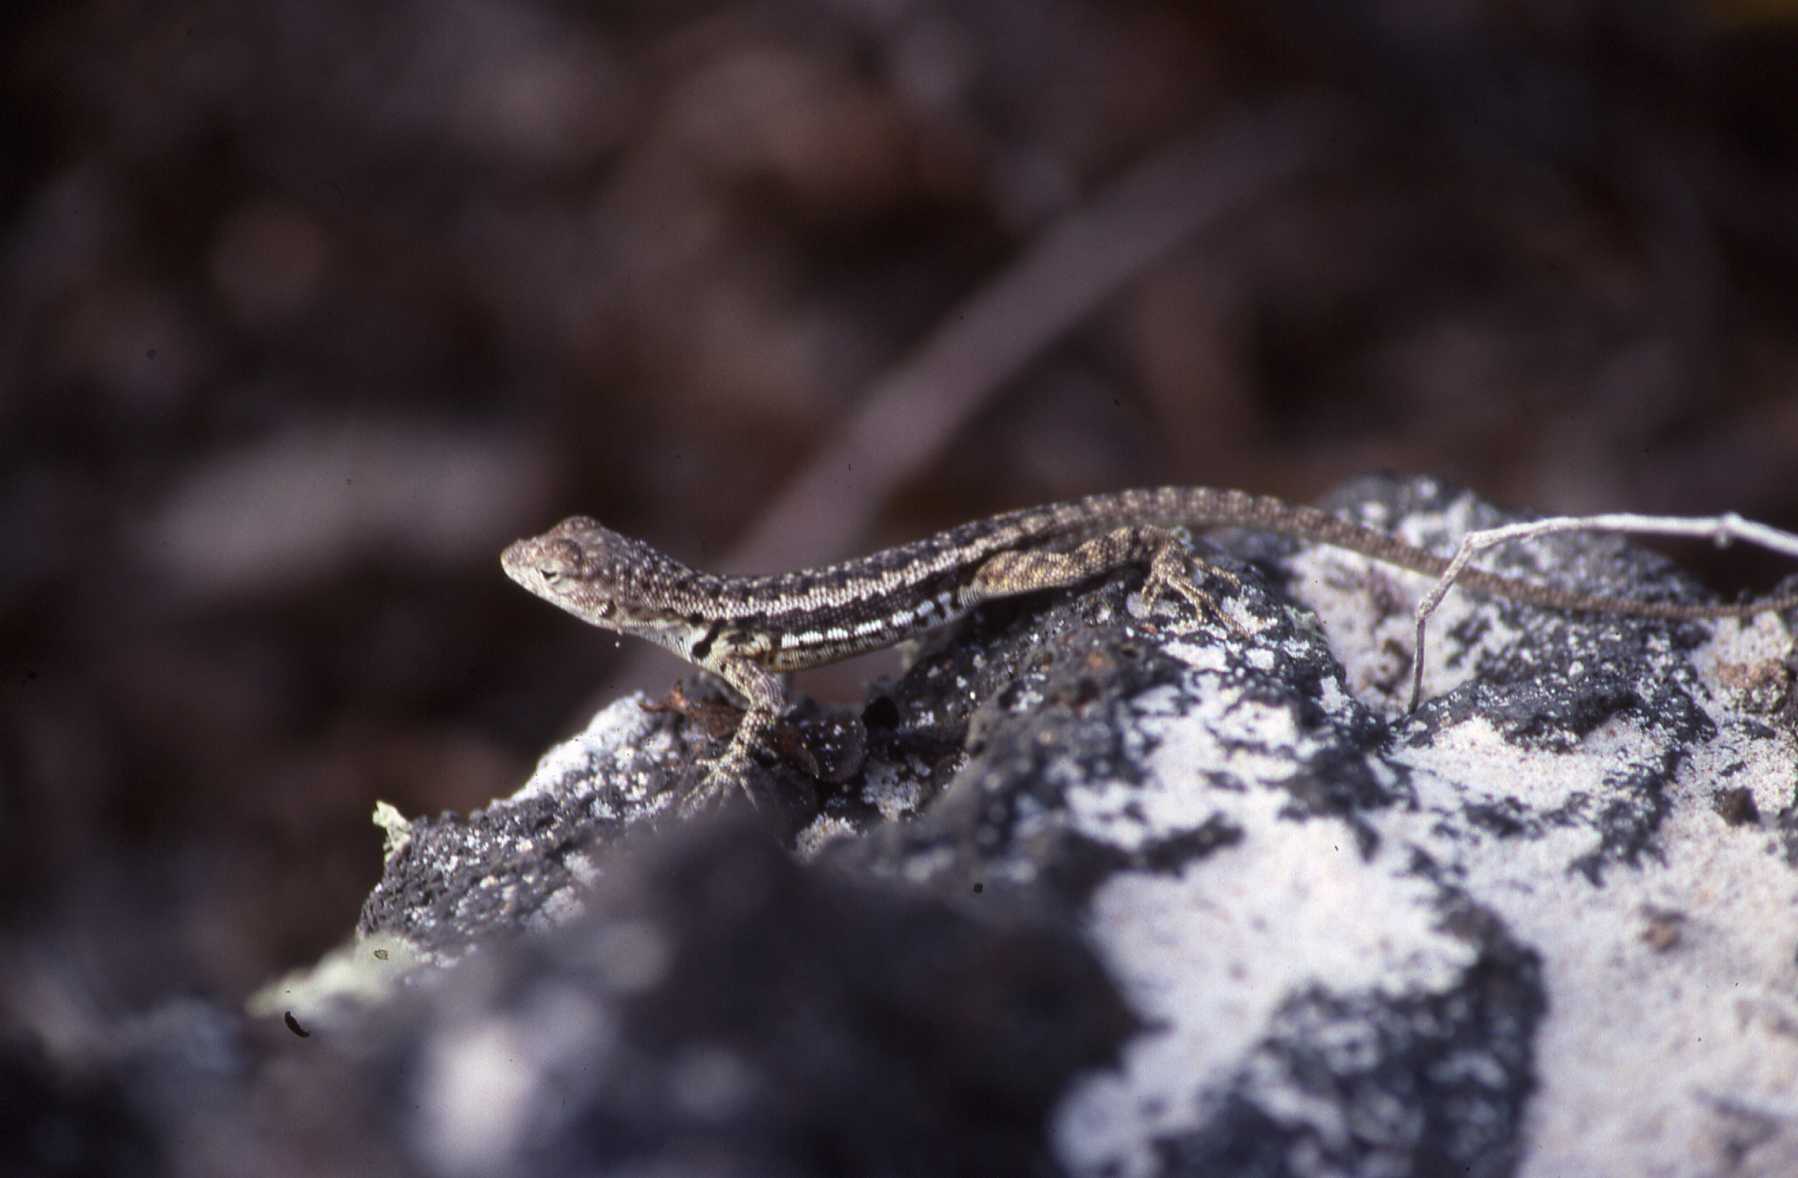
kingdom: Animalia
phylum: Chordata
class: Squamata
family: Tropiduridae
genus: Microlophus
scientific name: Microlophus grayii
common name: Floreana lava lizard
